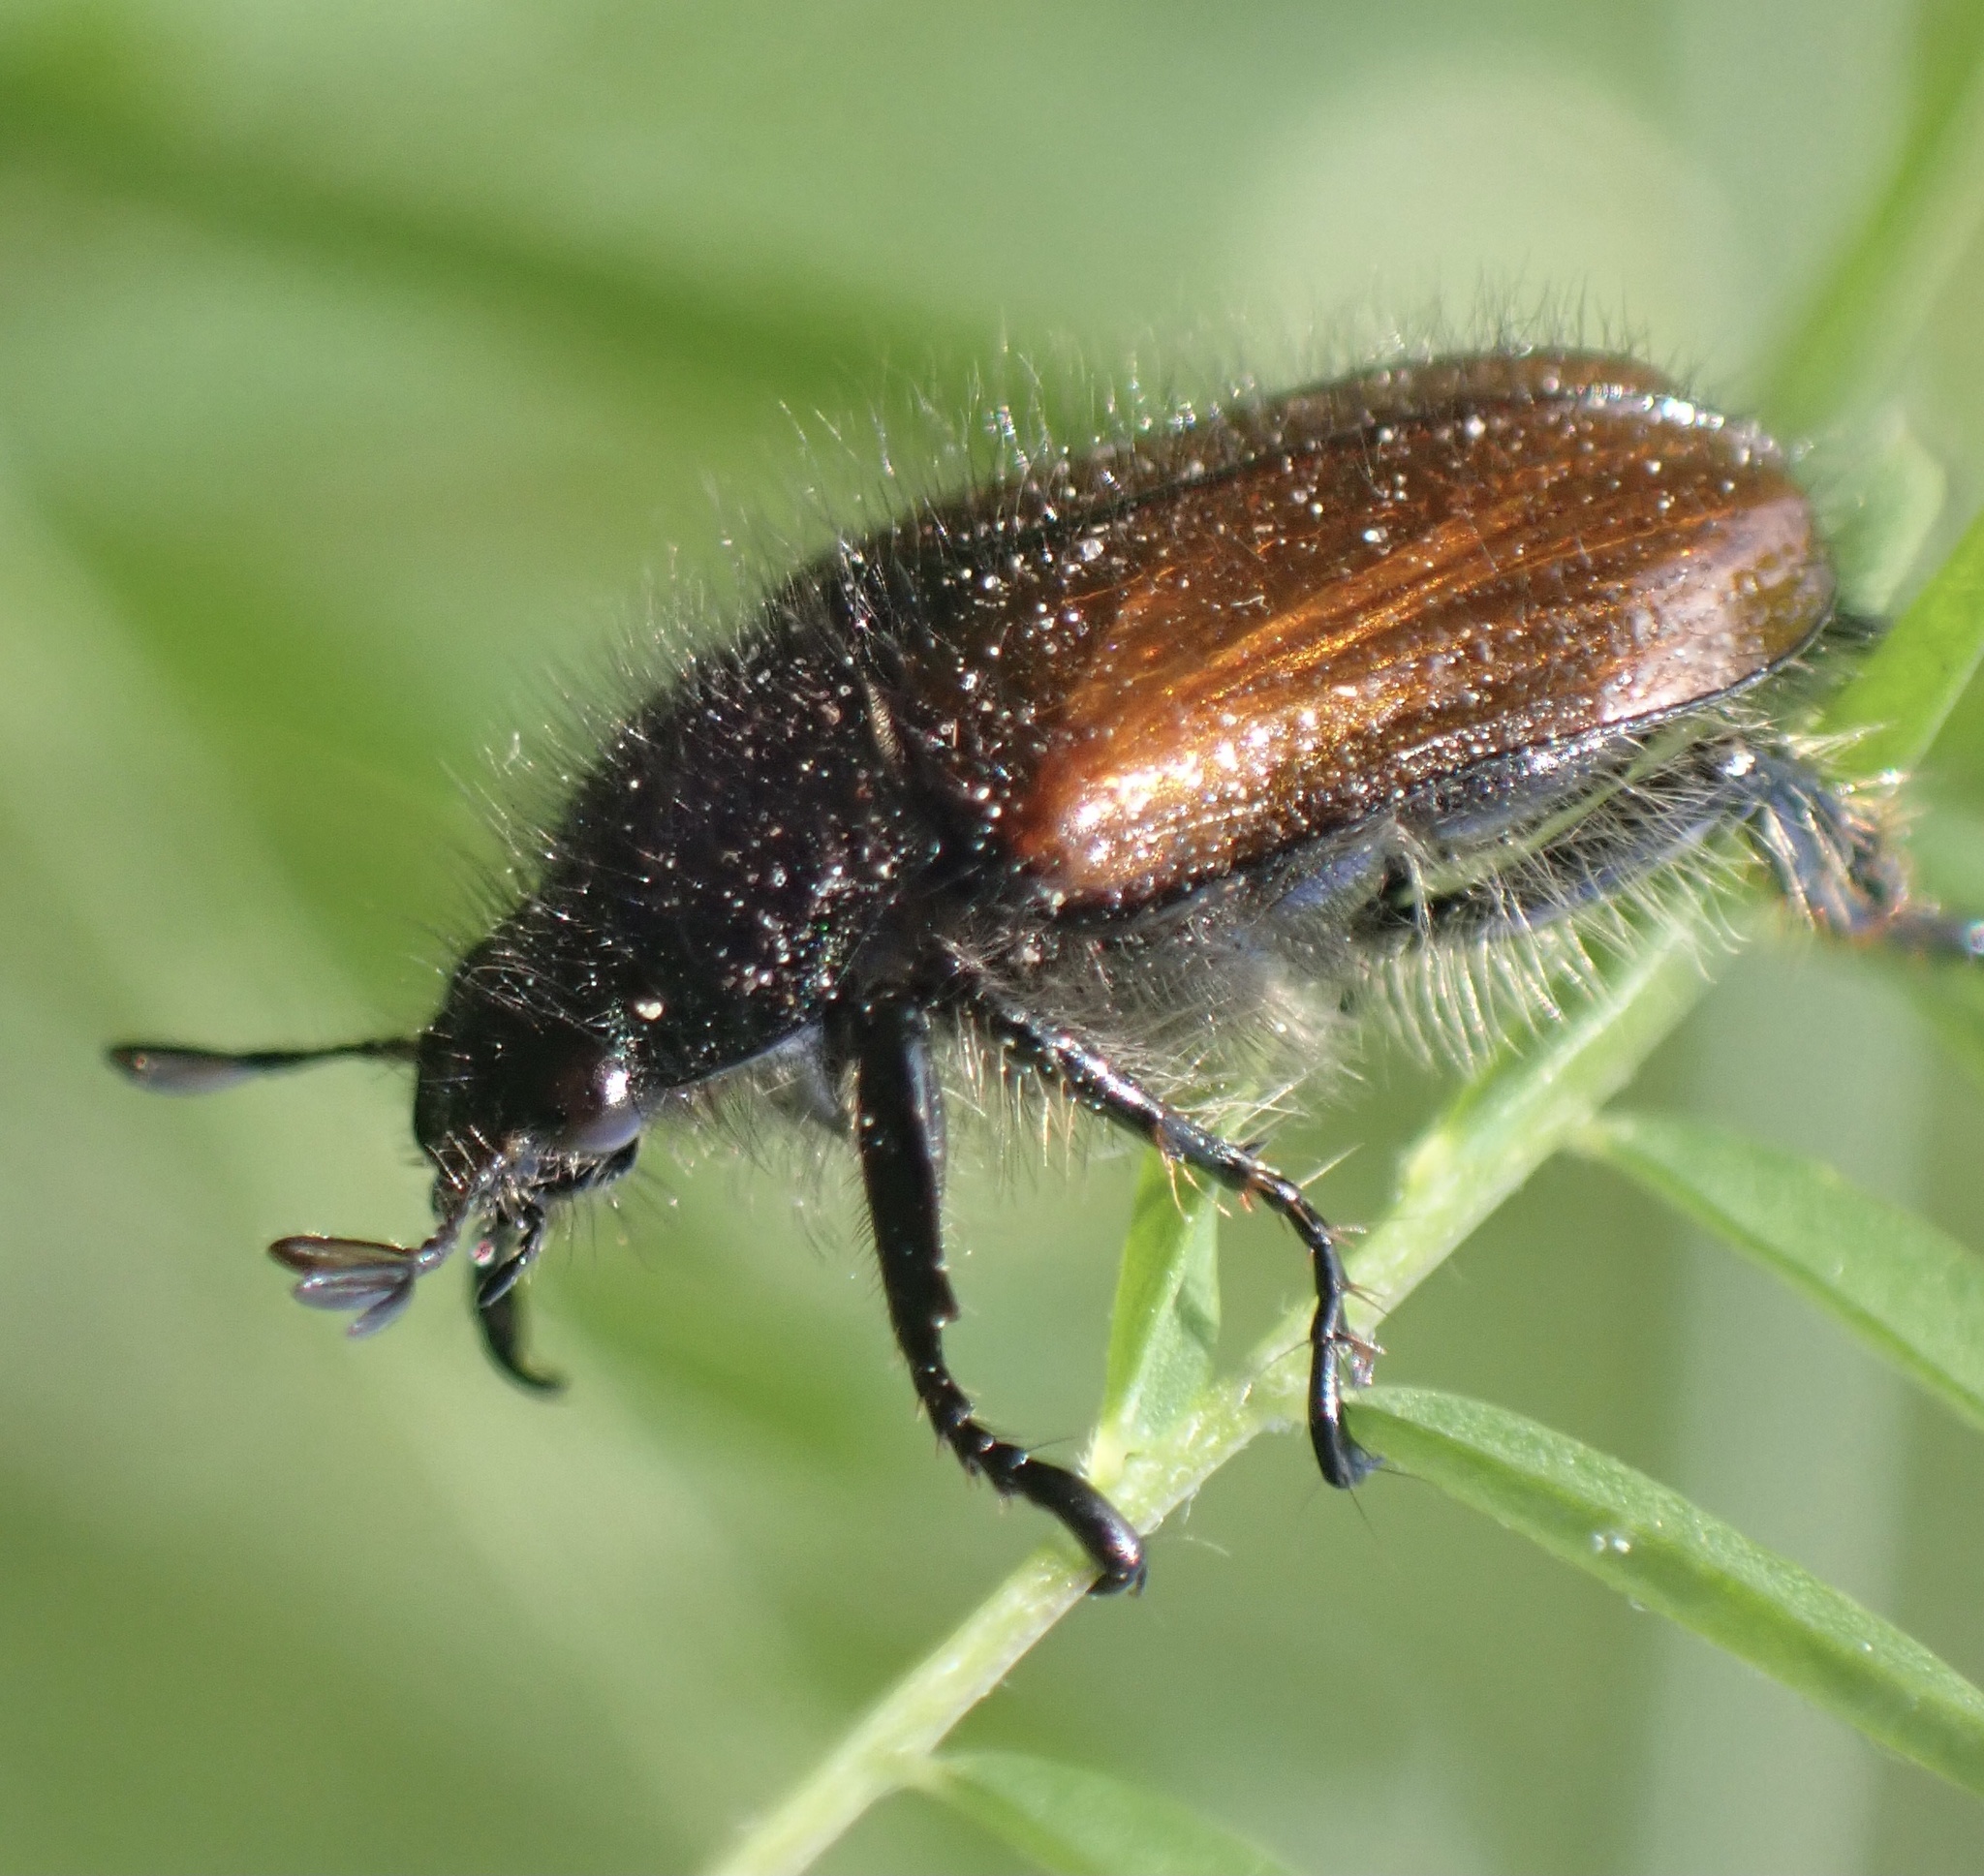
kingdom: Animalia
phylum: Arthropoda
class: Insecta
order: Coleoptera
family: Scarabaeidae
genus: Phyllopertha
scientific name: Phyllopertha horticola
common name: Garden chafer
